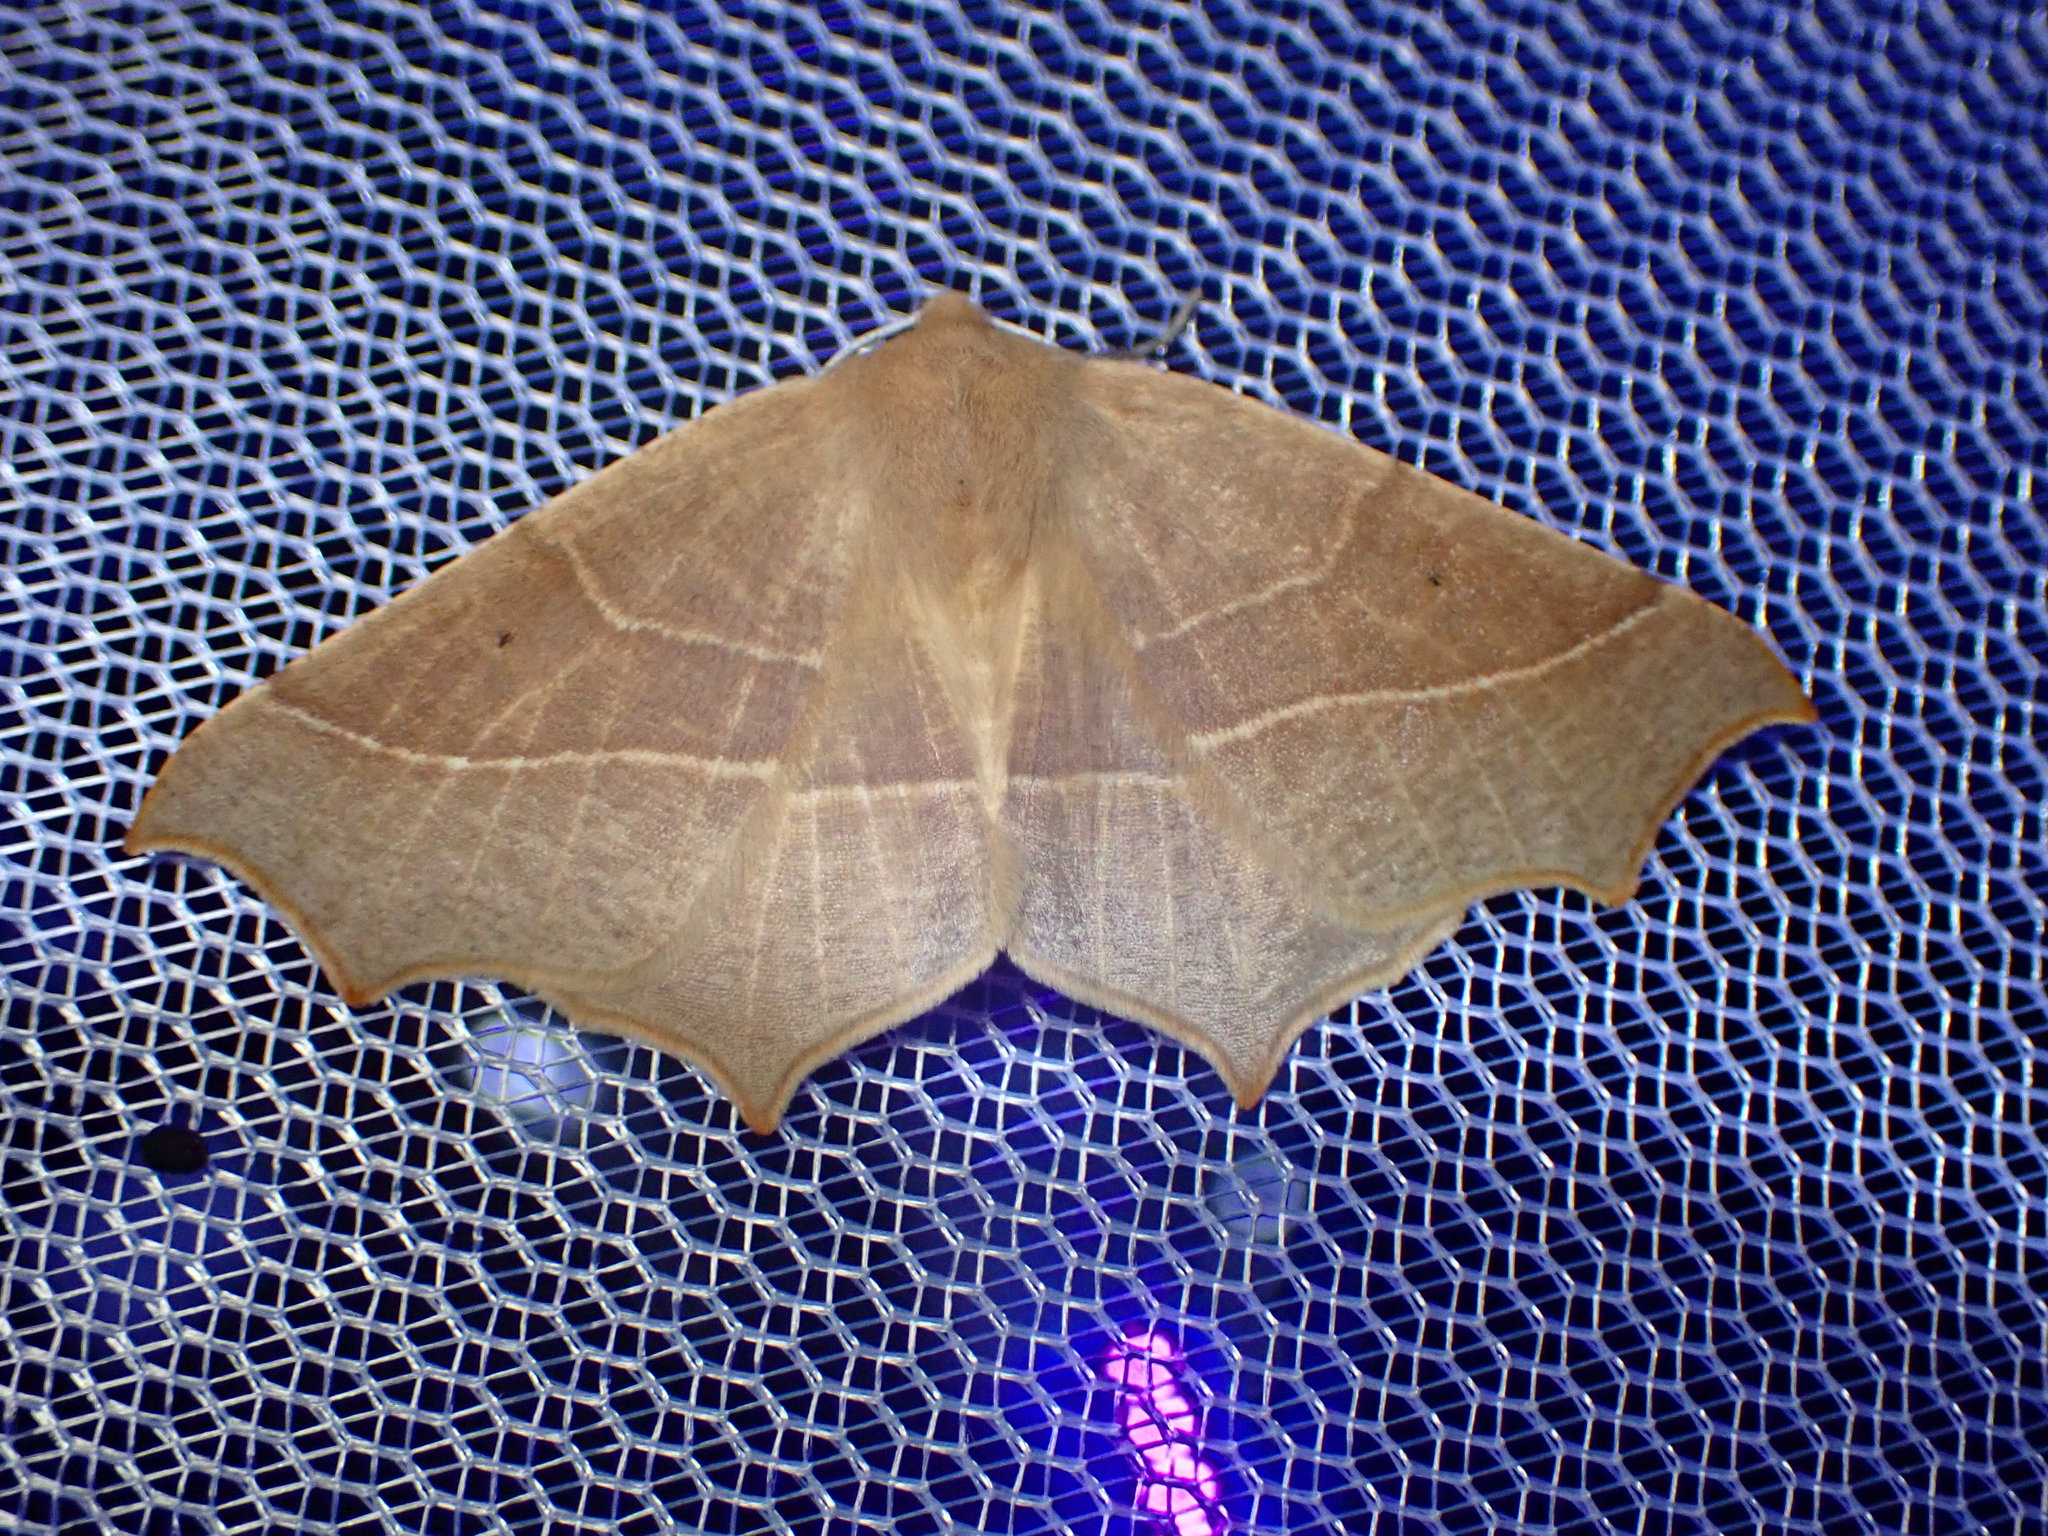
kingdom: Animalia
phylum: Arthropoda
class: Insecta
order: Lepidoptera
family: Geometridae
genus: Tetracis
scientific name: Tetracis cervinaria
